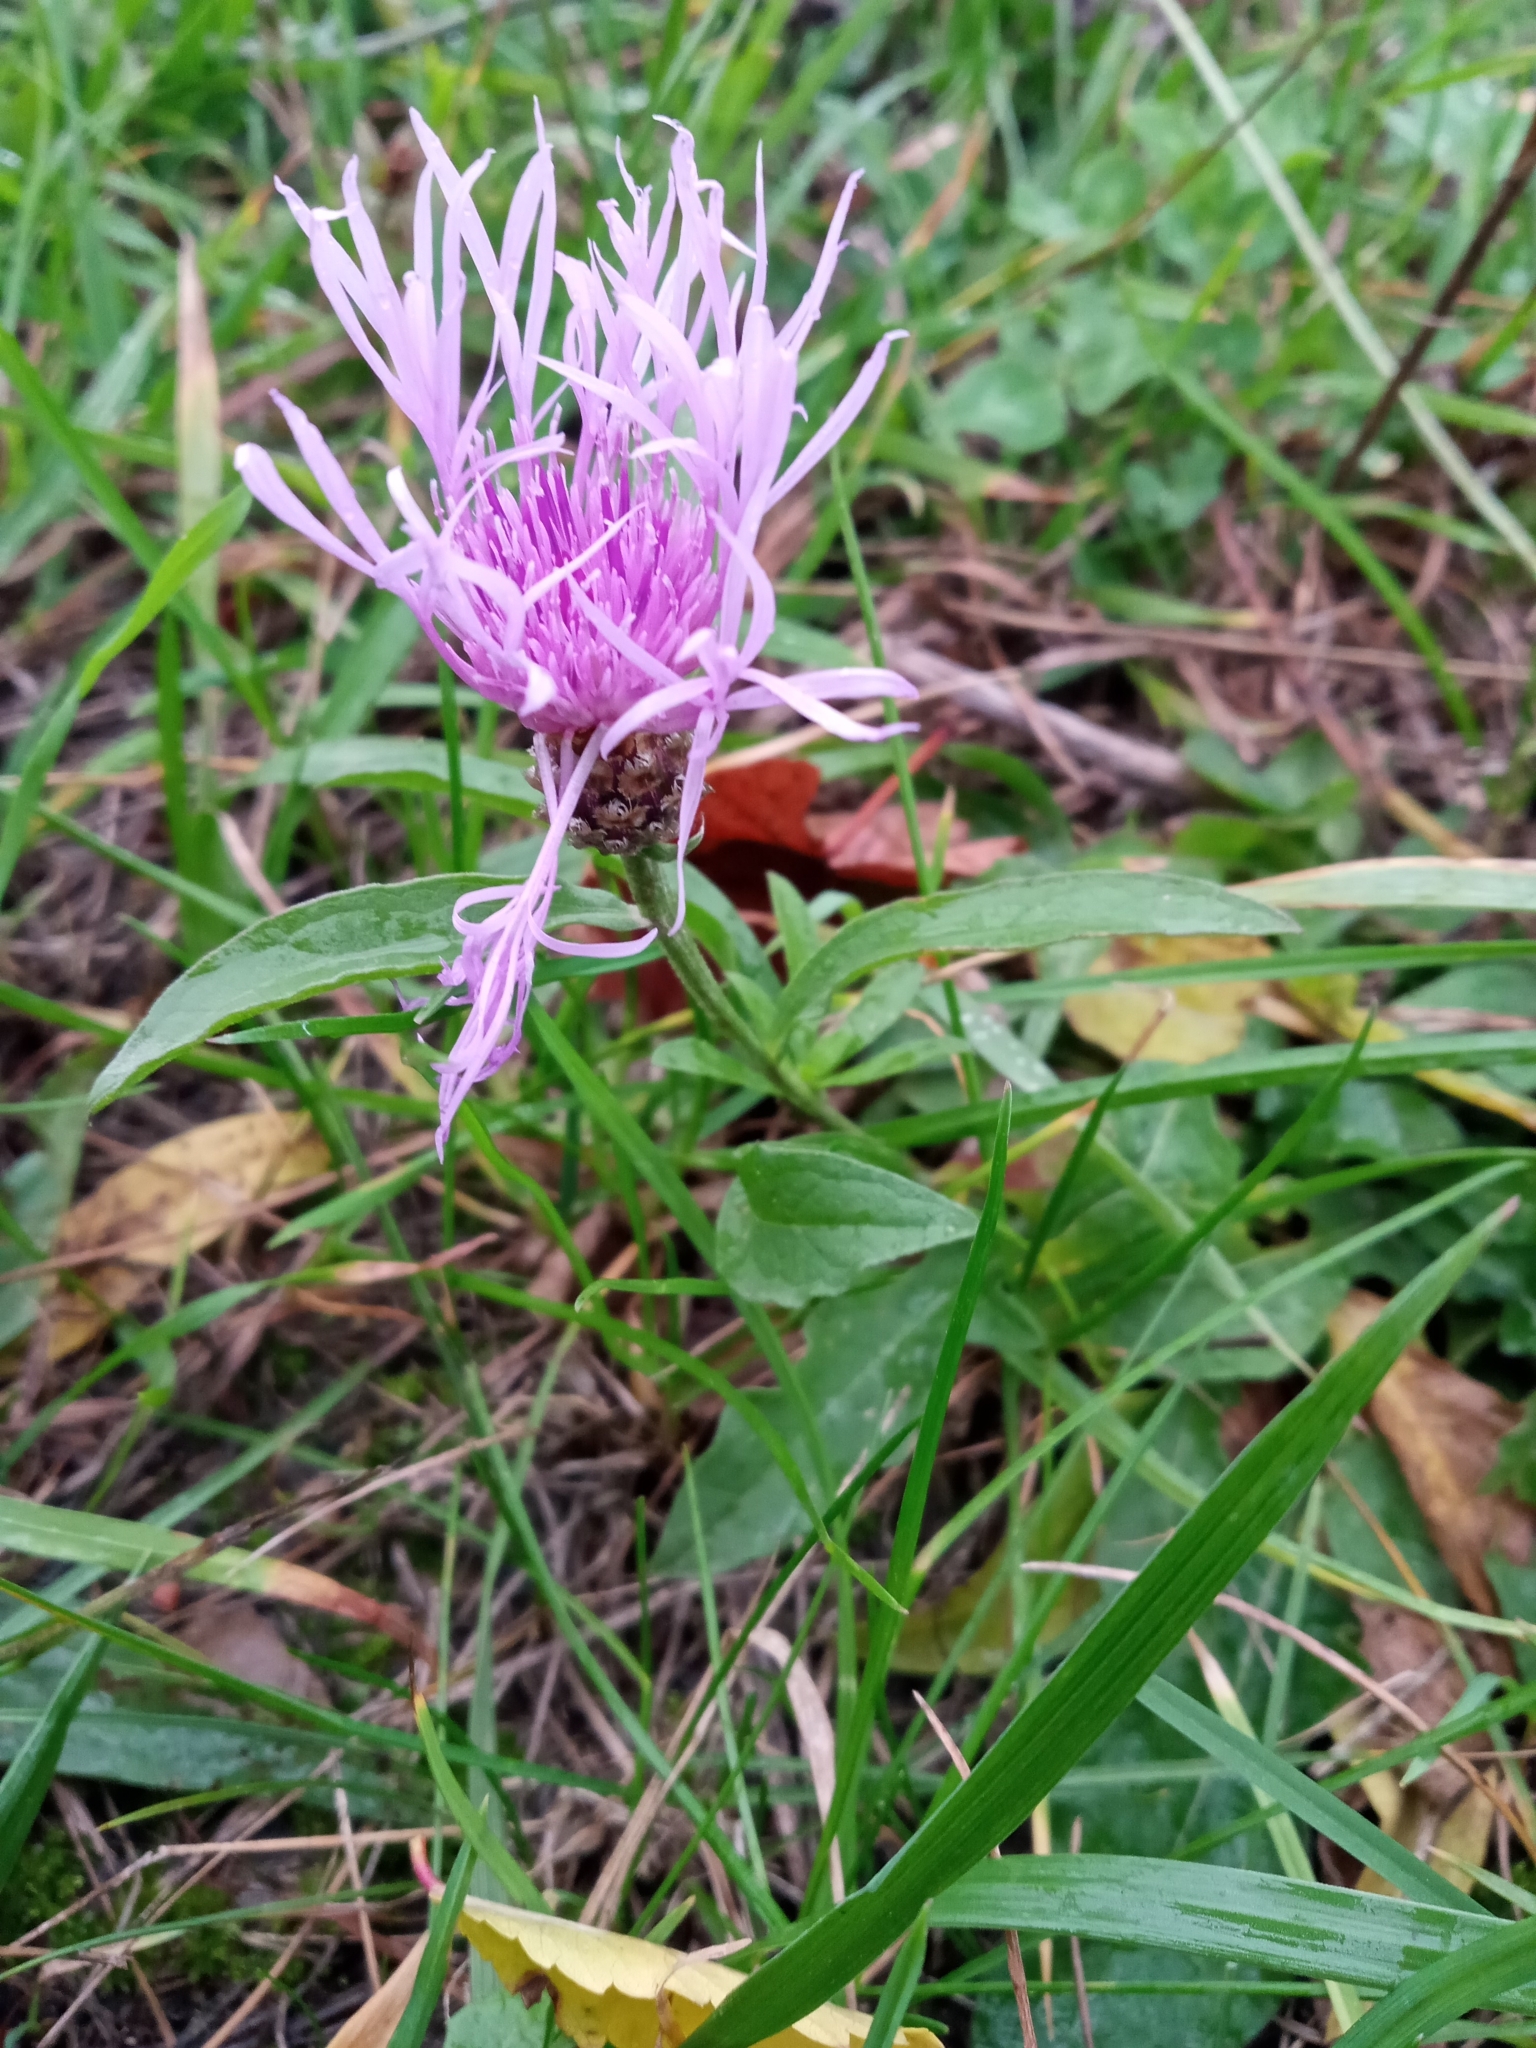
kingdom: Plantae
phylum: Tracheophyta
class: Magnoliopsida
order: Asterales
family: Asteraceae
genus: Centaurea
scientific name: Centaurea jacea
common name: Brown knapweed
